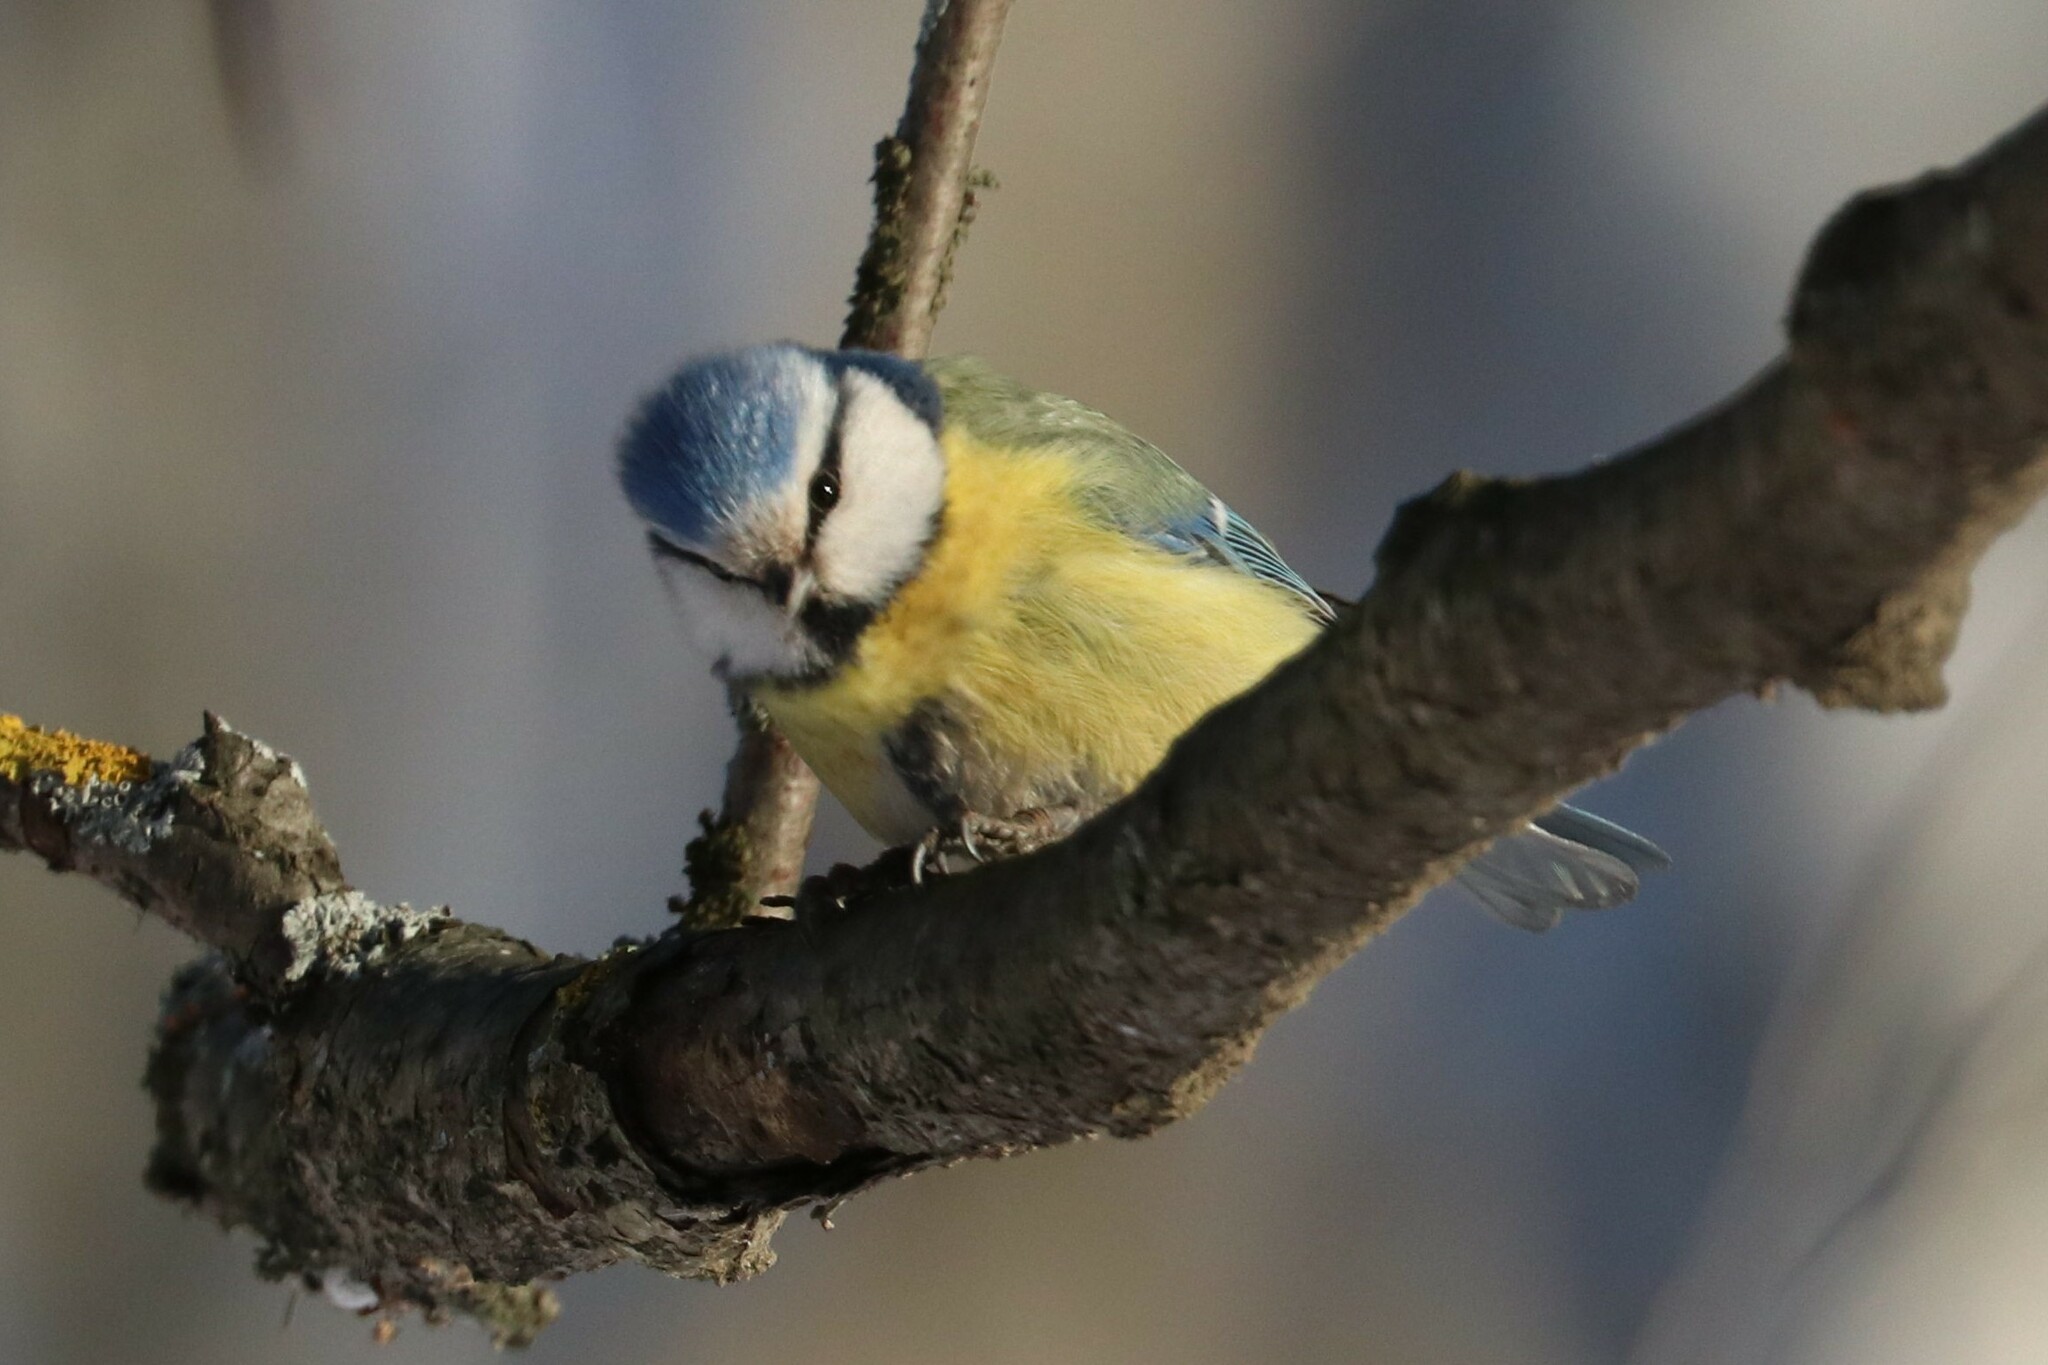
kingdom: Animalia
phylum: Chordata
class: Aves
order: Passeriformes
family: Paridae
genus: Cyanistes
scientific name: Cyanistes caeruleus
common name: Eurasian blue tit
